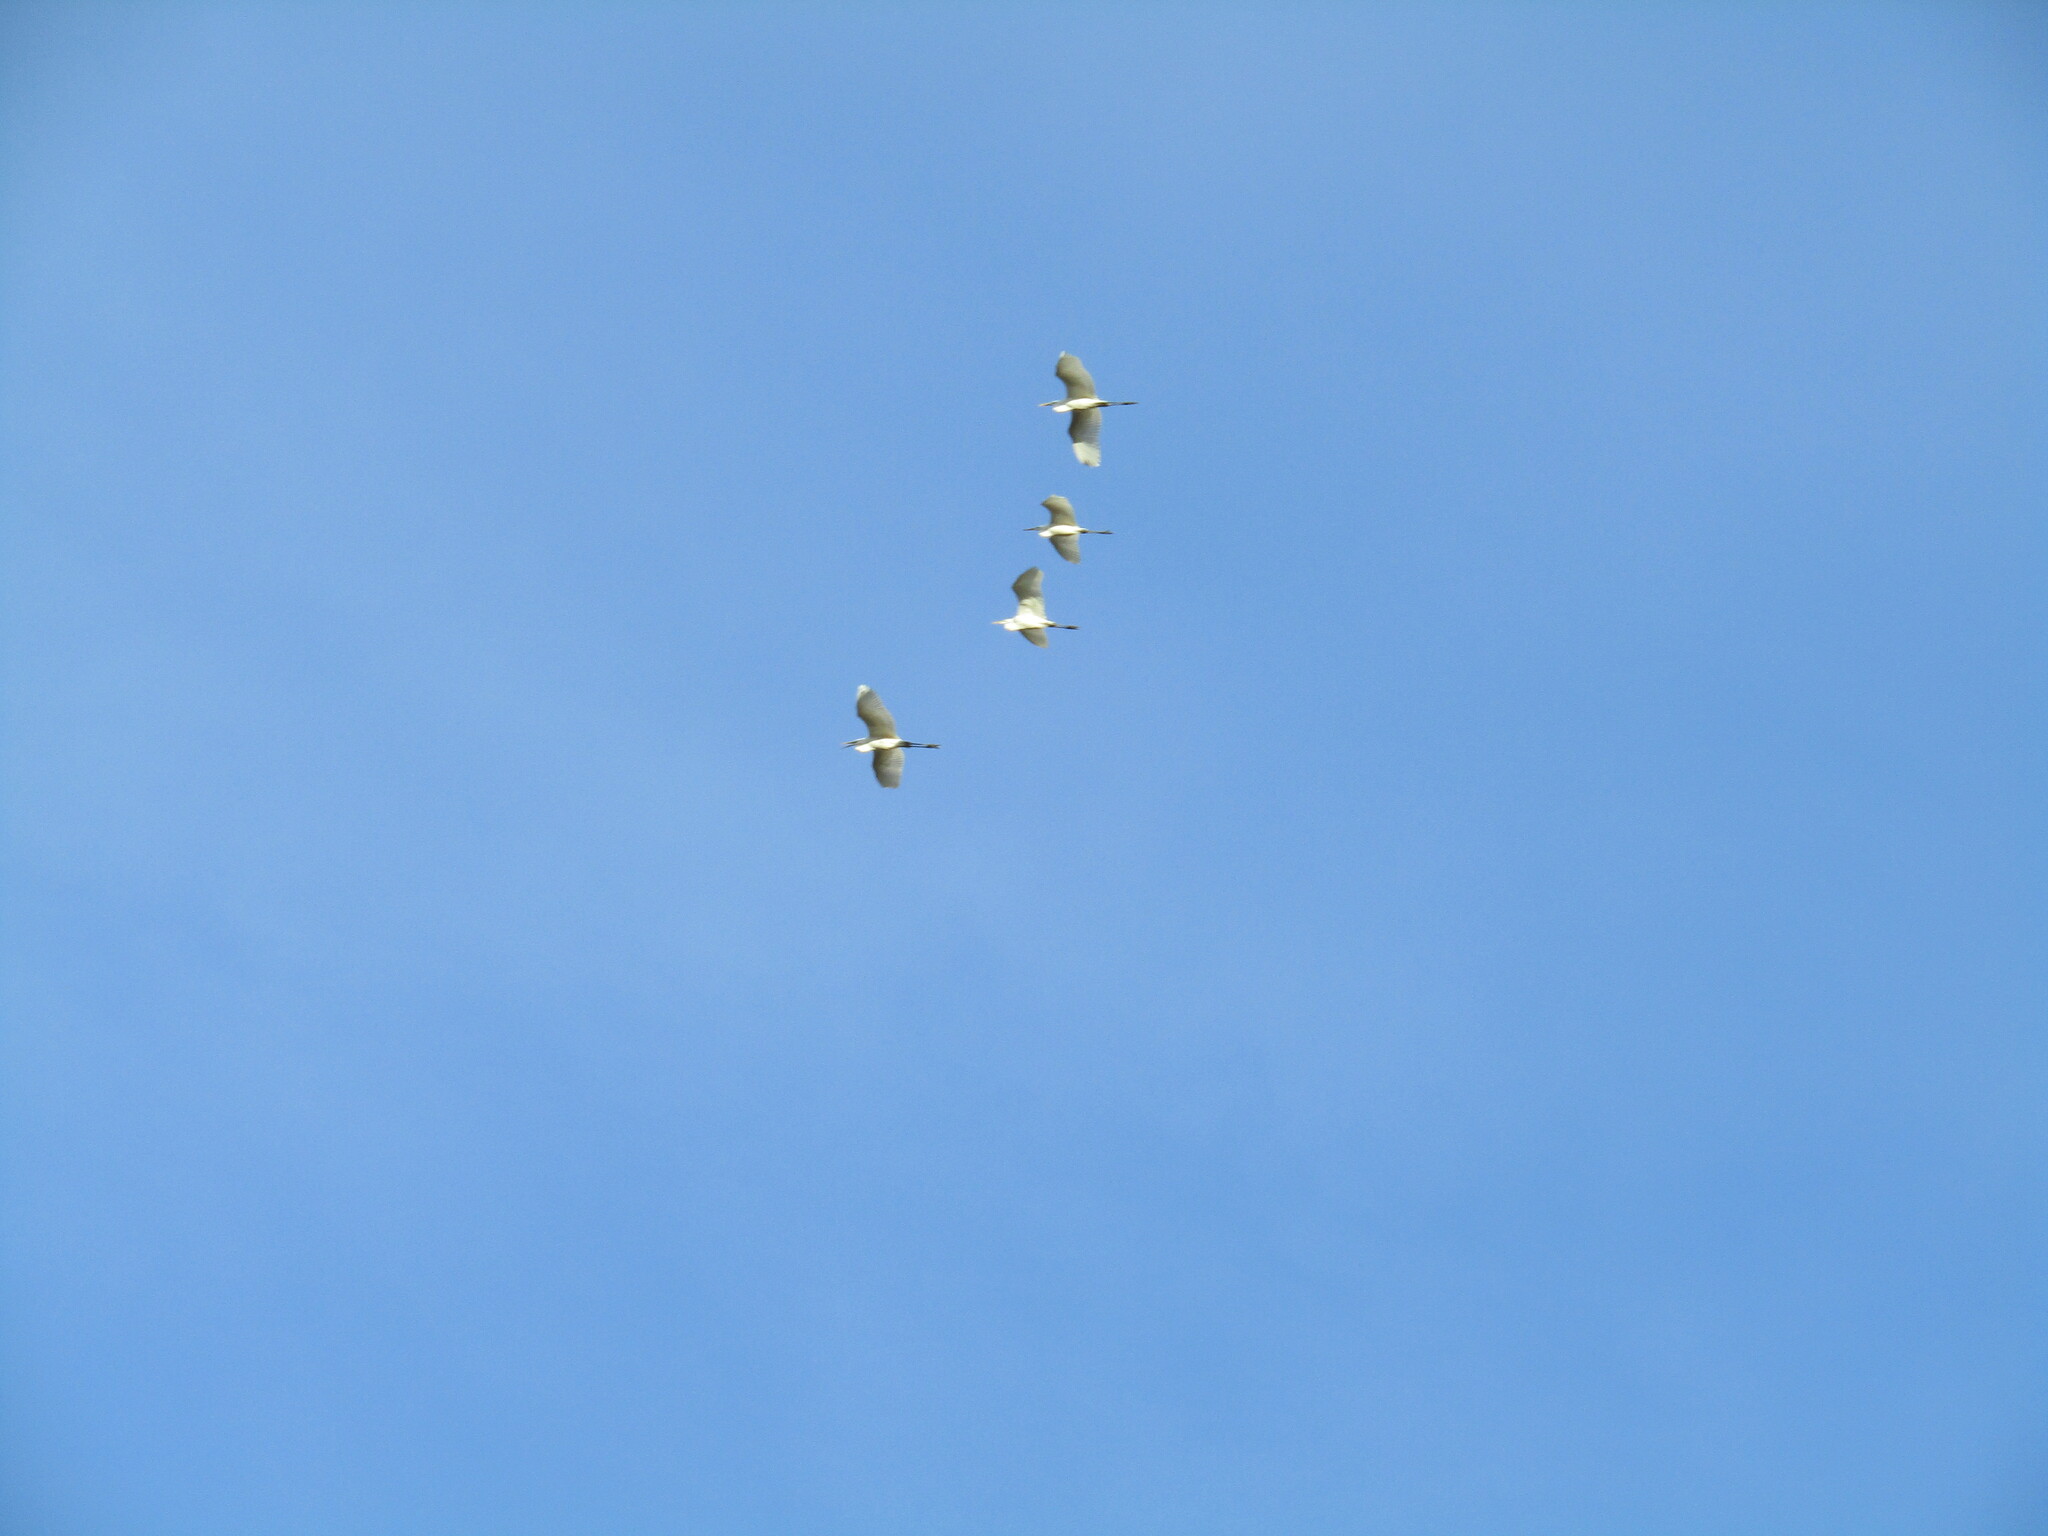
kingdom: Animalia
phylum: Chordata
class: Aves
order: Pelecaniformes
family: Ardeidae
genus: Ardea
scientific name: Ardea alba
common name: Great egret
